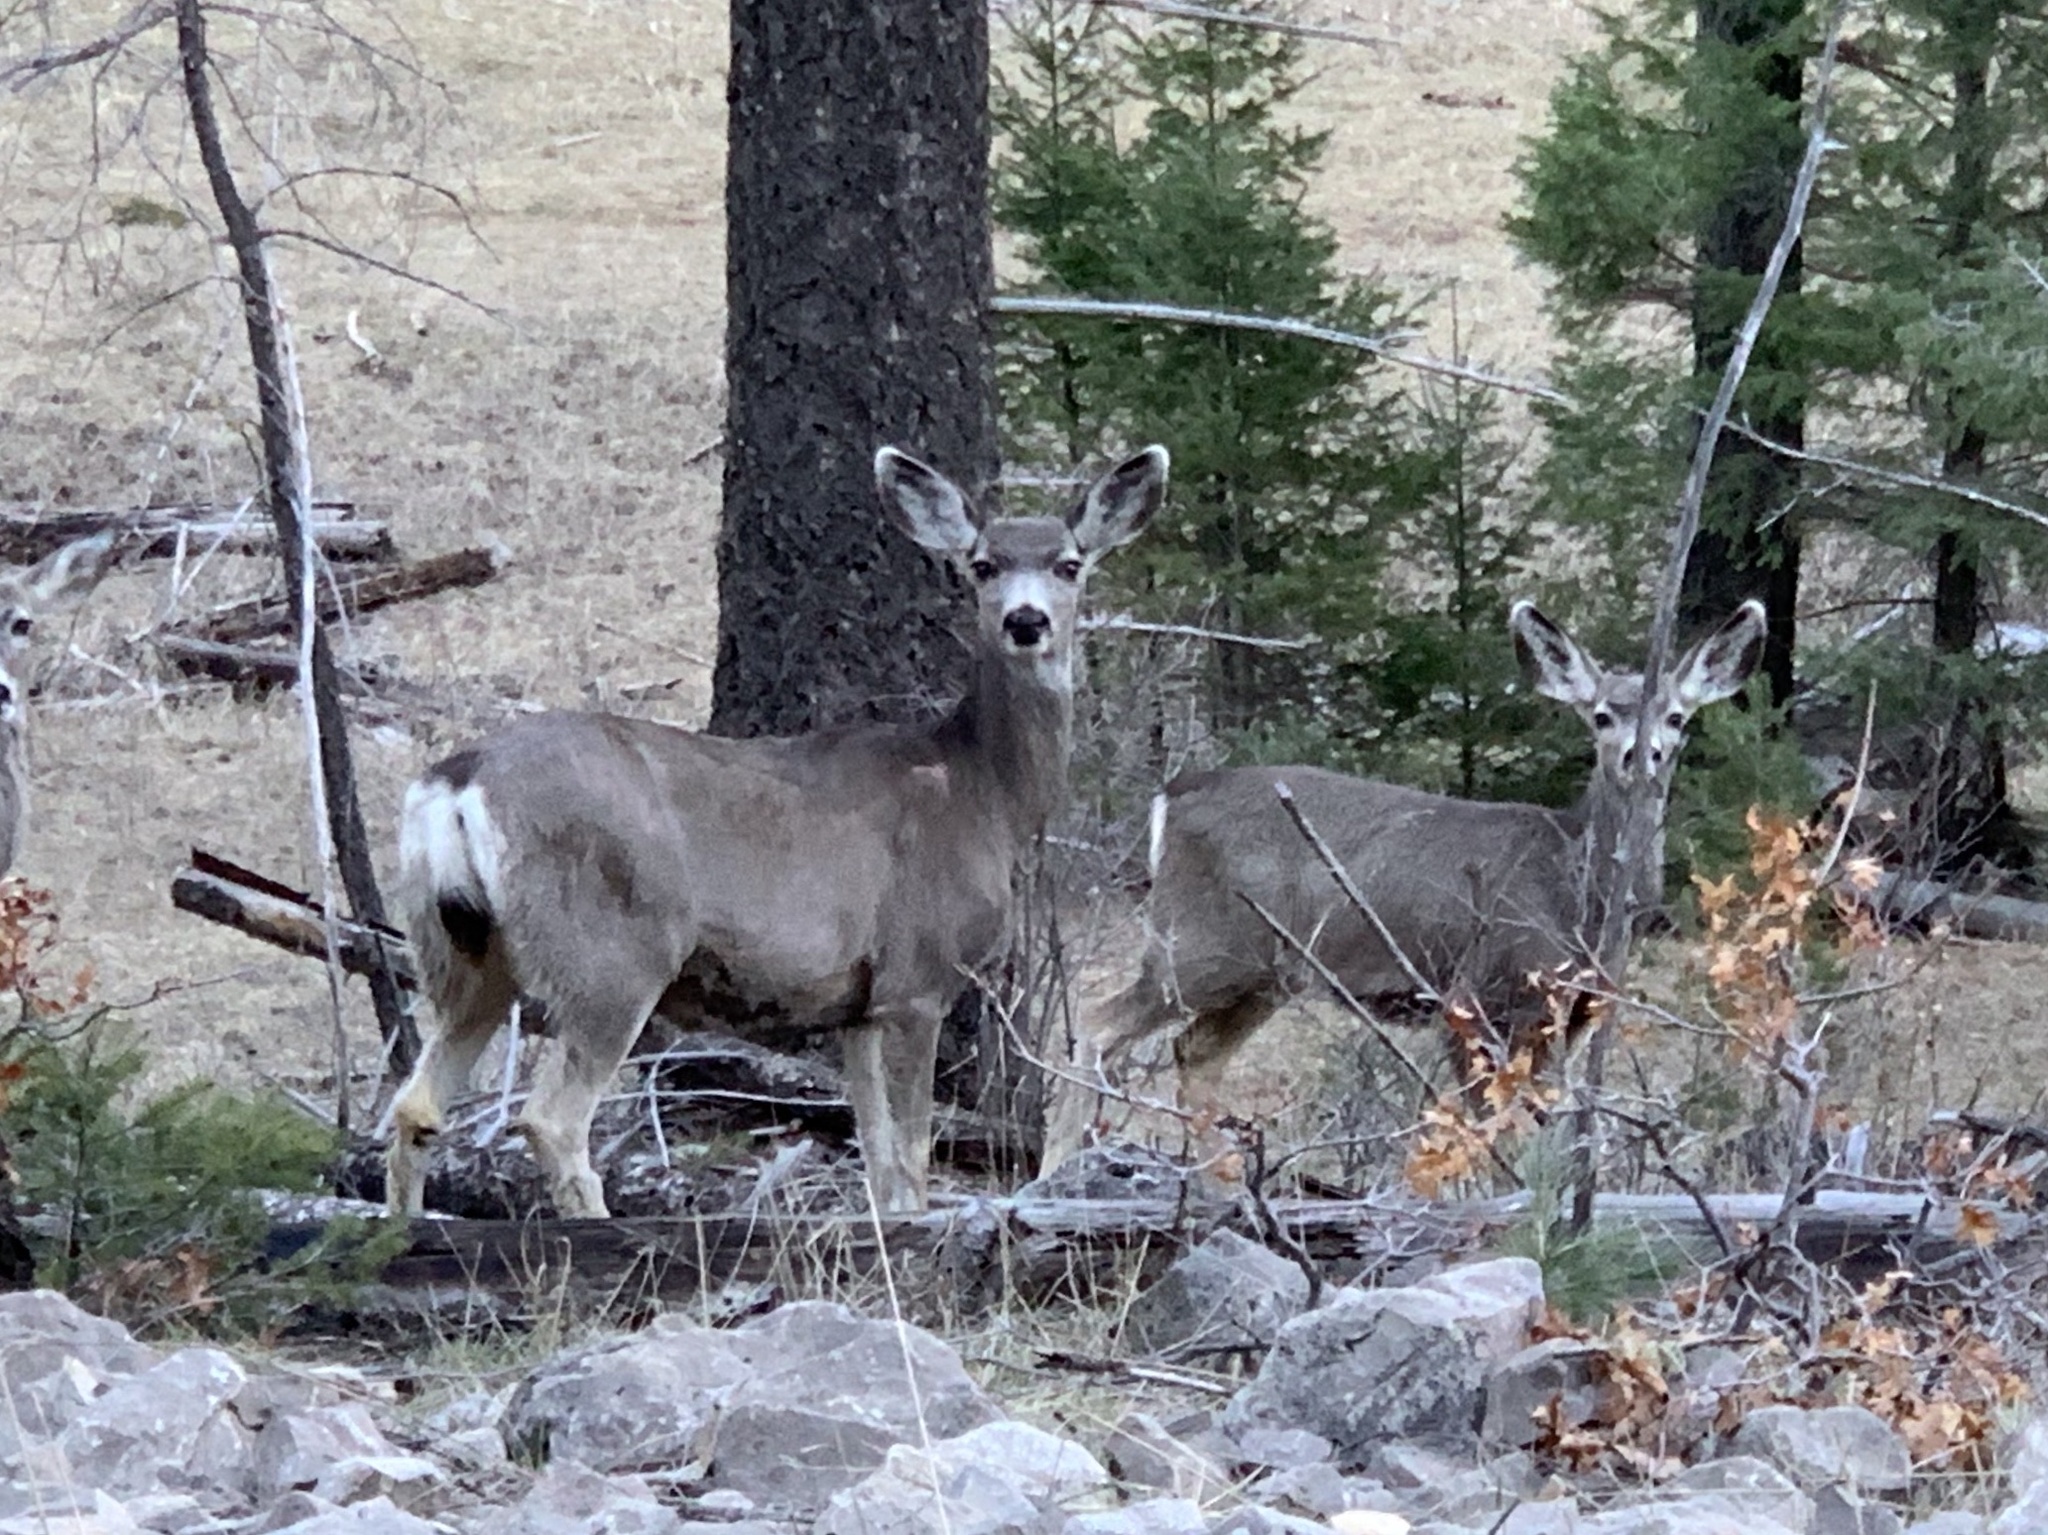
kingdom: Animalia
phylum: Chordata
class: Mammalia
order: Artiodactyla
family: Cervidae
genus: Odocoileus
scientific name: Odocoileus hemionus
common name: Mule deer
